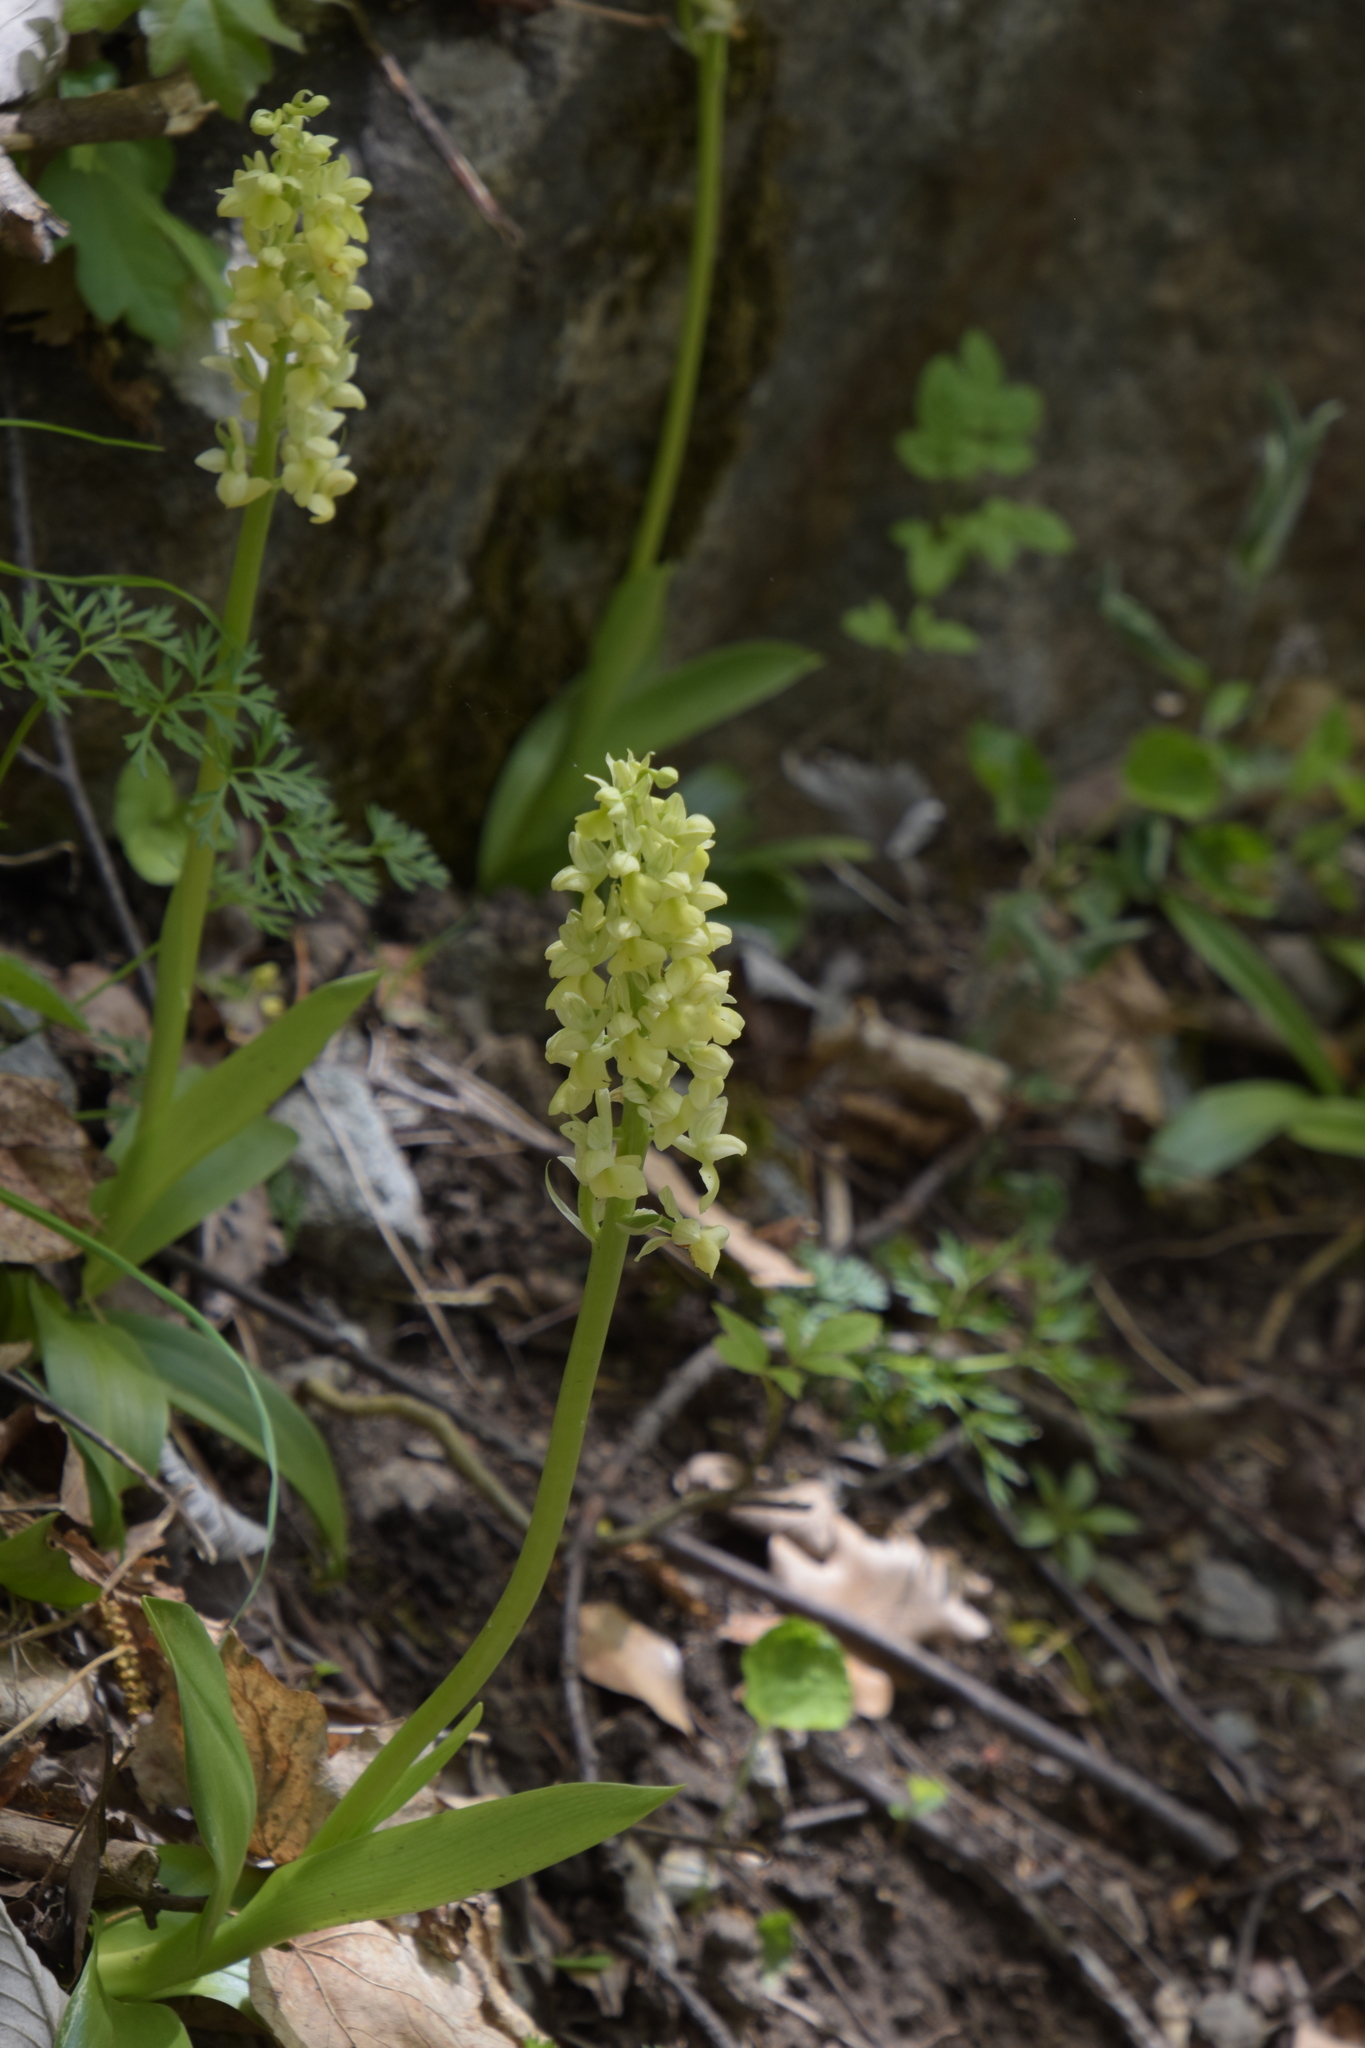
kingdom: Plantae
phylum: Tracheophyta
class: Liliopsida
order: Asparagales
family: Orchidaceae
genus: Orchis
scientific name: Orchis pallens
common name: Pale-flowered orchid
